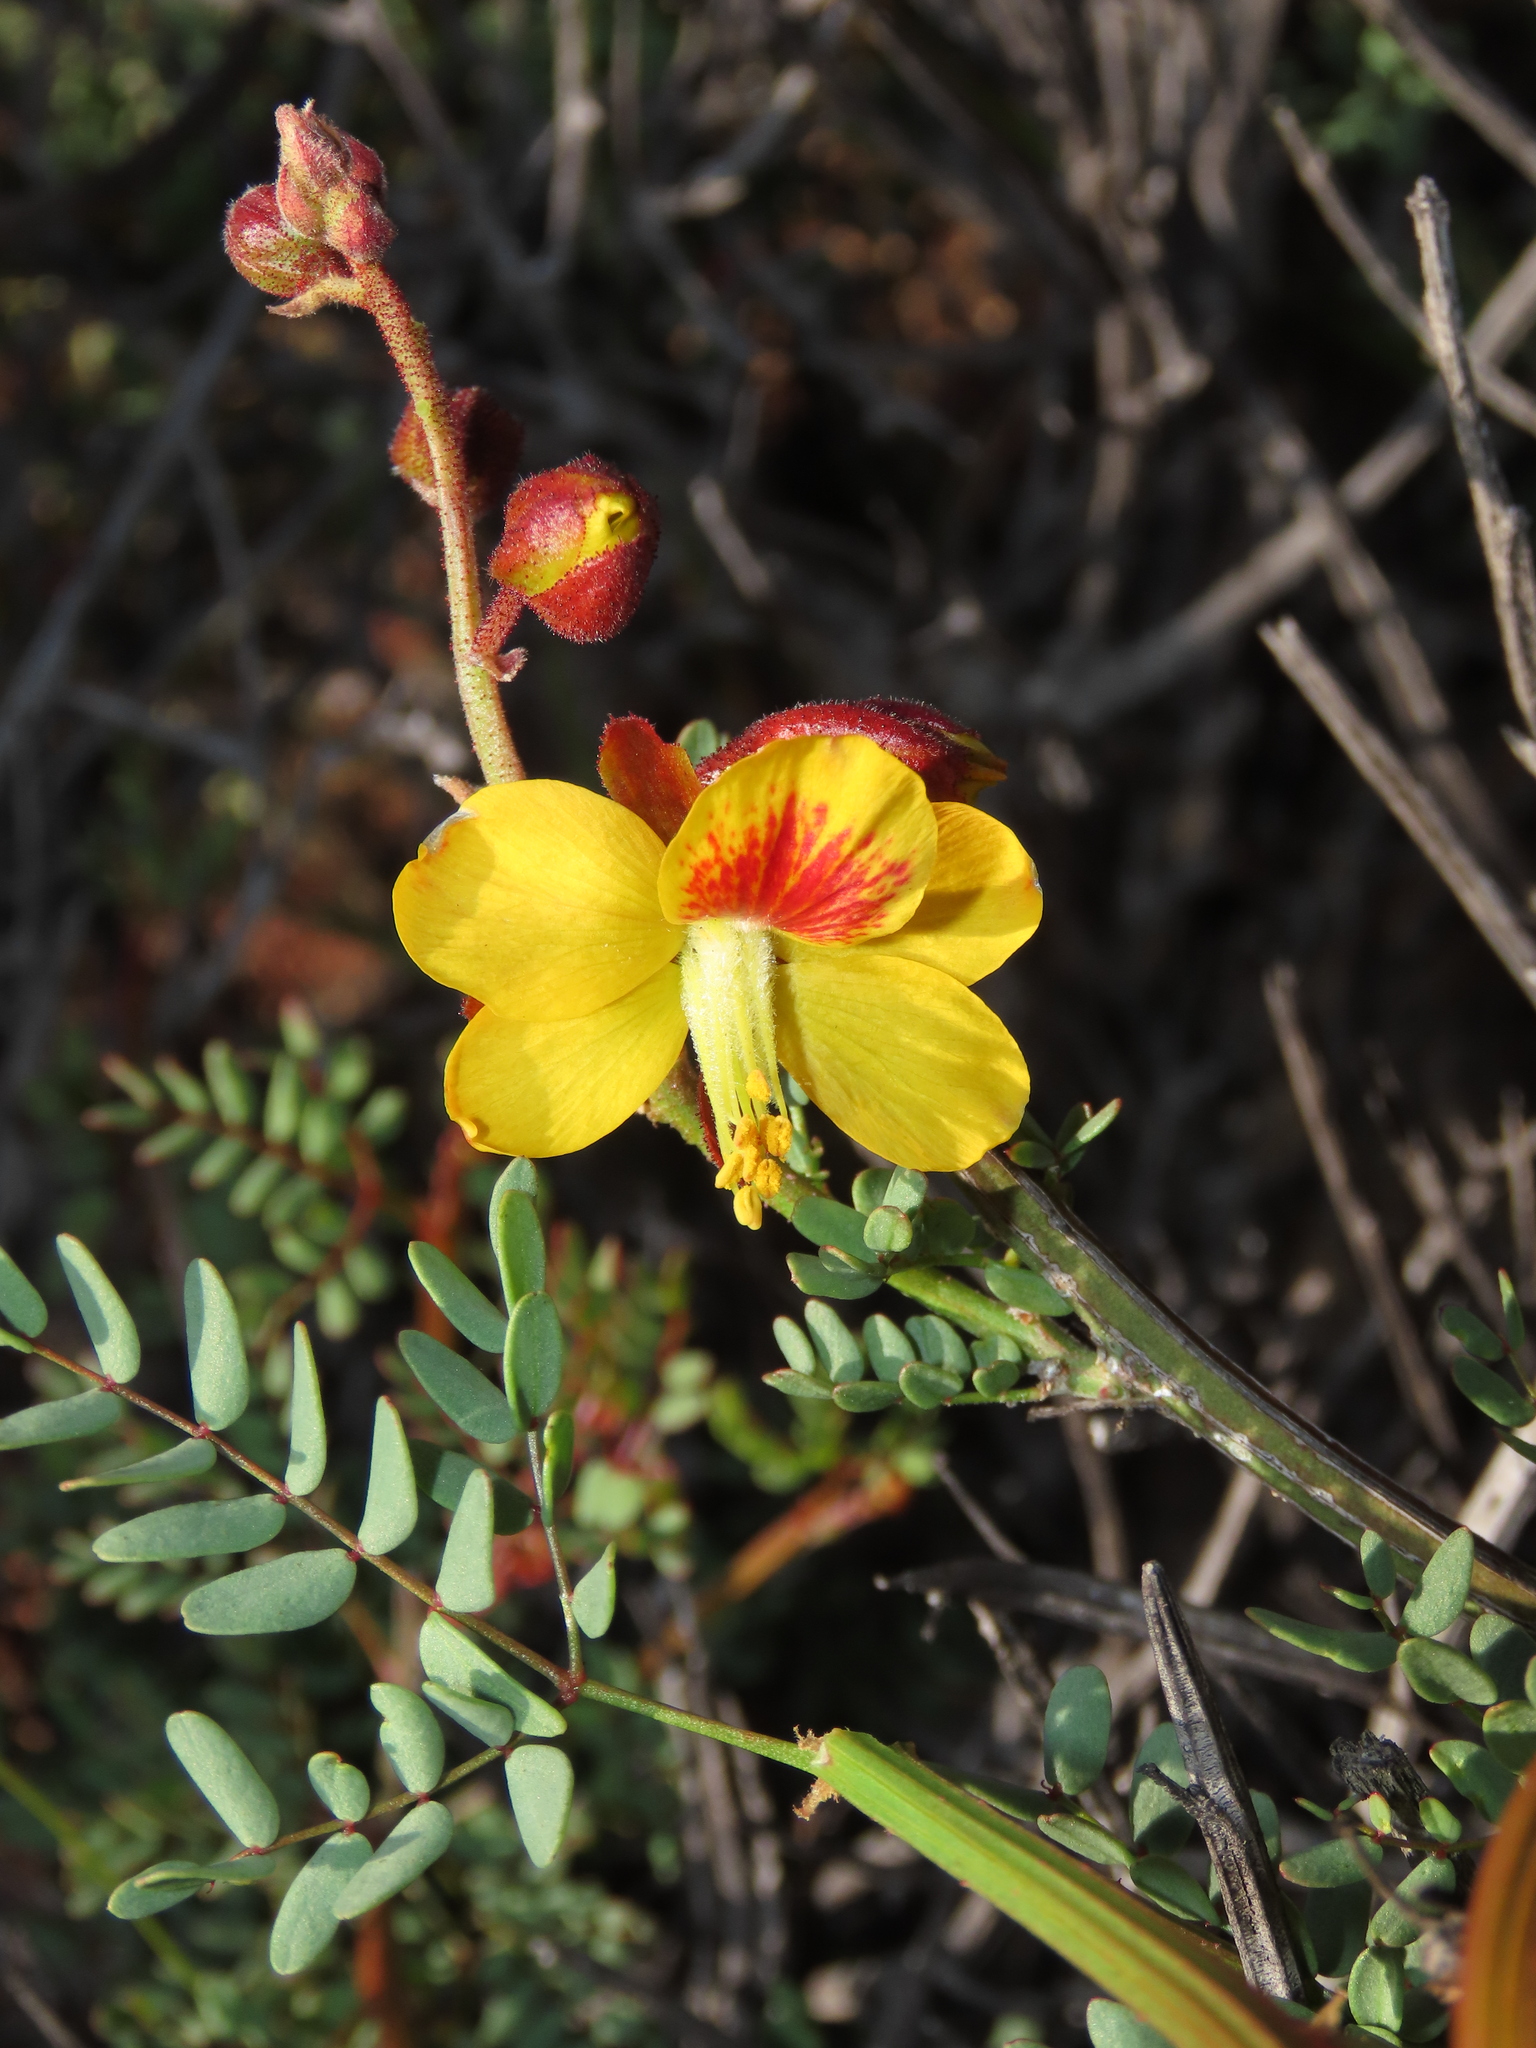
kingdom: Plantae
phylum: Tracheophyta
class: Magnoliopsida
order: Fabales
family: Fabaceae
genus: Erythrostemon
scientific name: Erythrostemon angulatus
